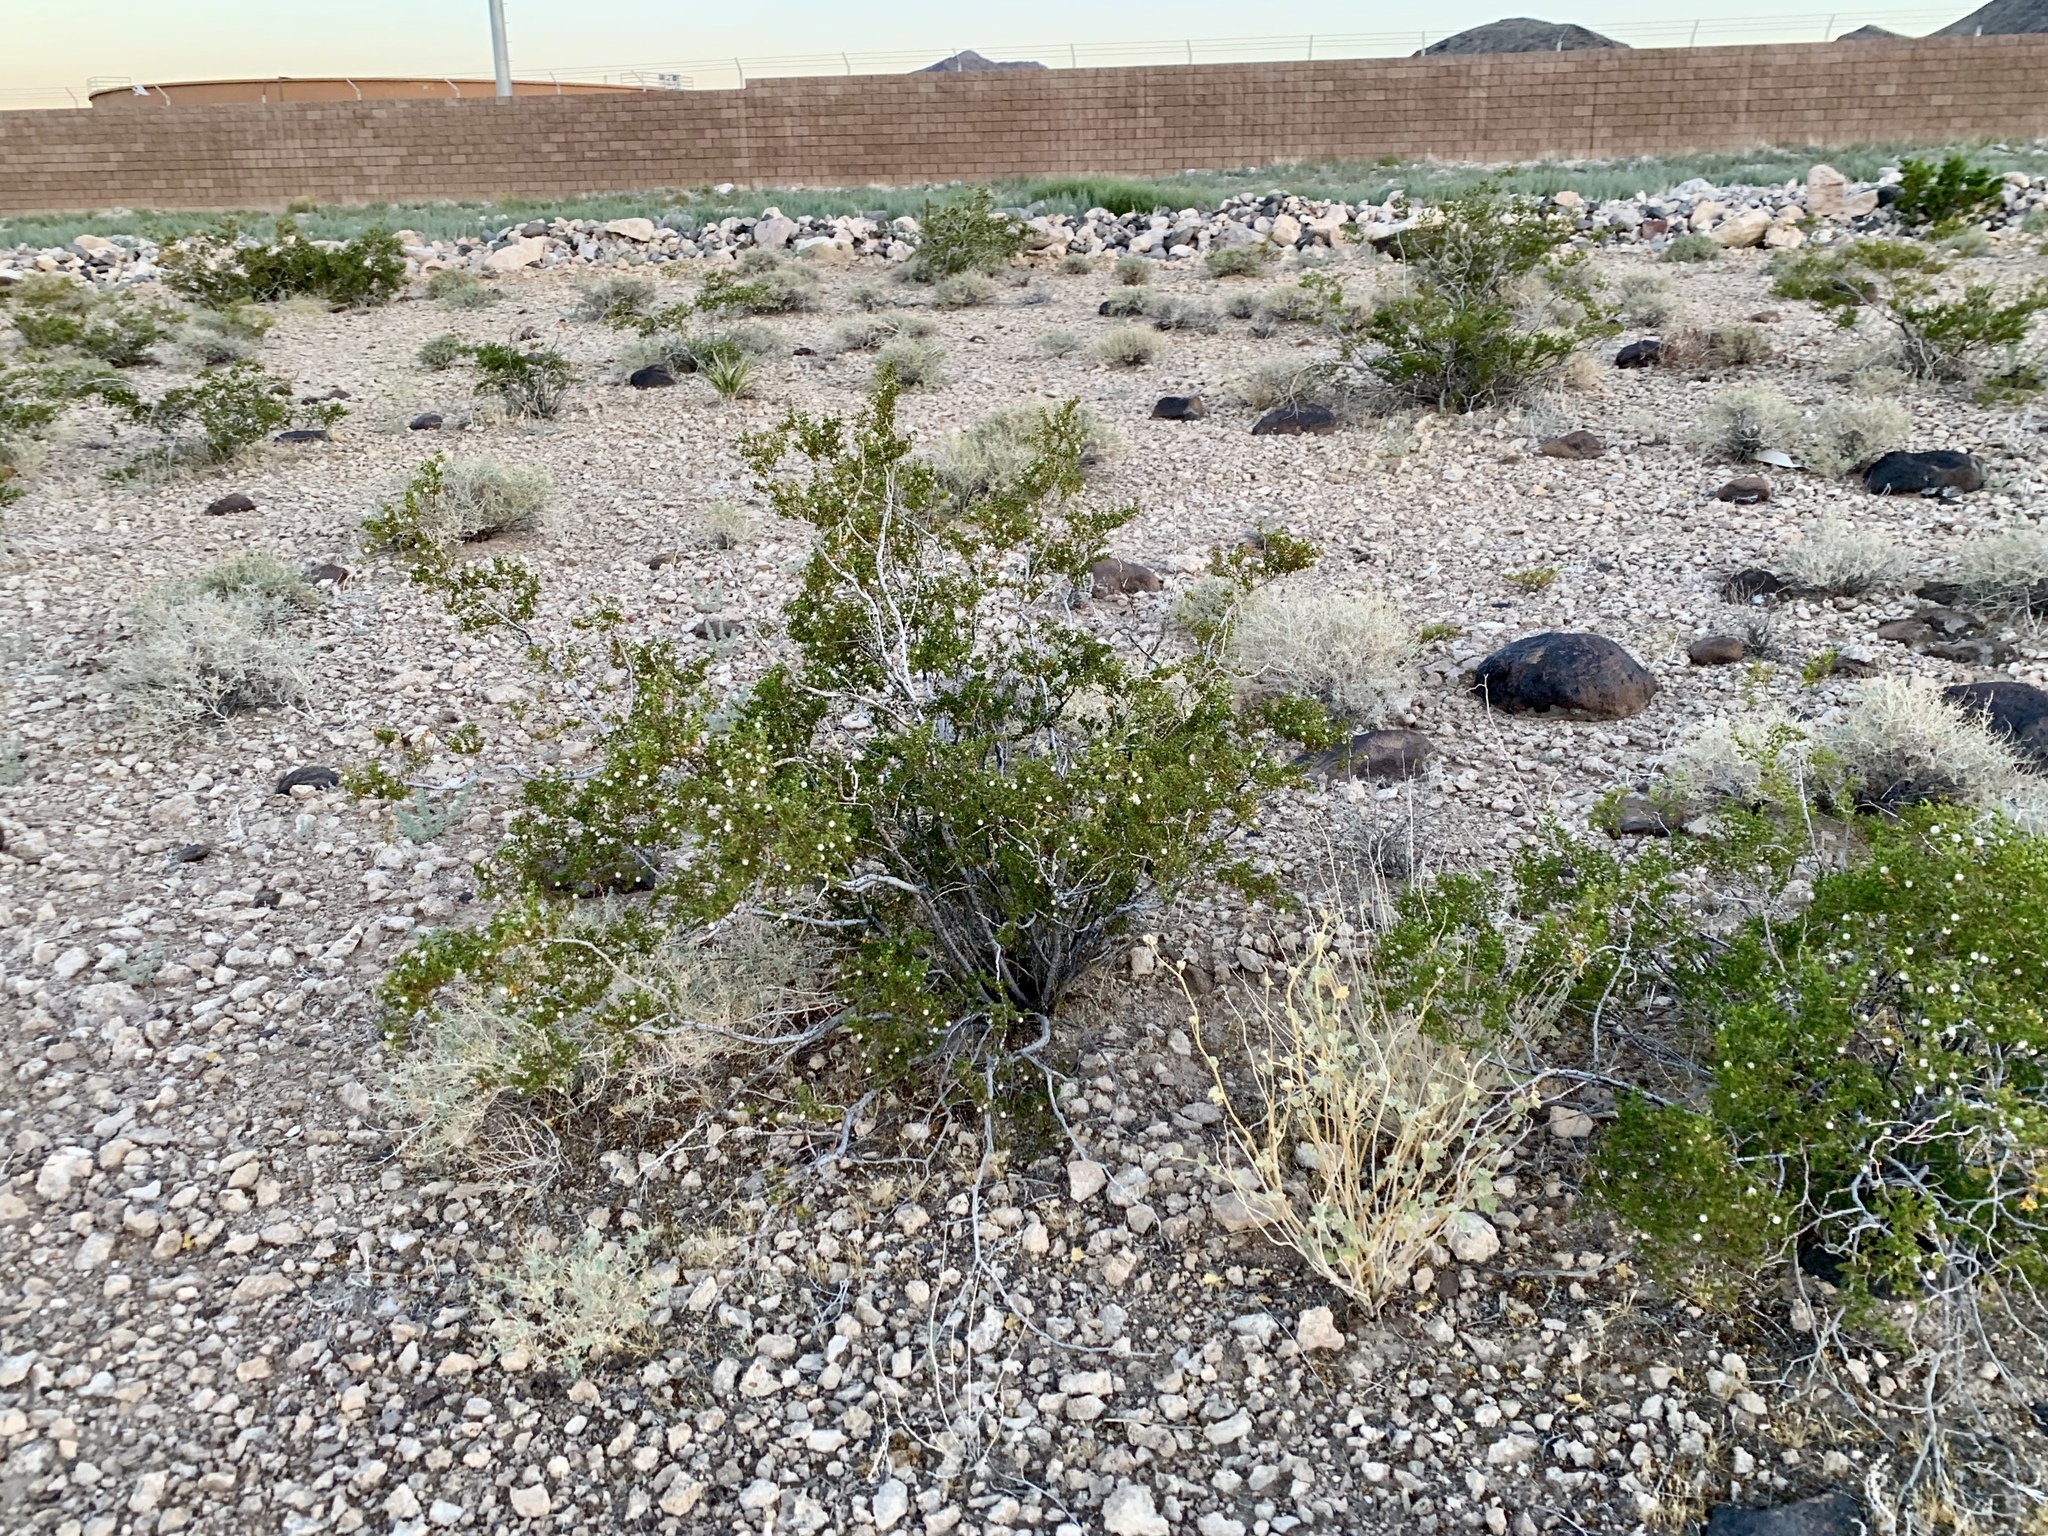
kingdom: Plantae
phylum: Tracheophyta
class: Magnoliopsida
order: Zygophyllales
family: Zygophyllaceae
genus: Larrea
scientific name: Larrea tridentata
